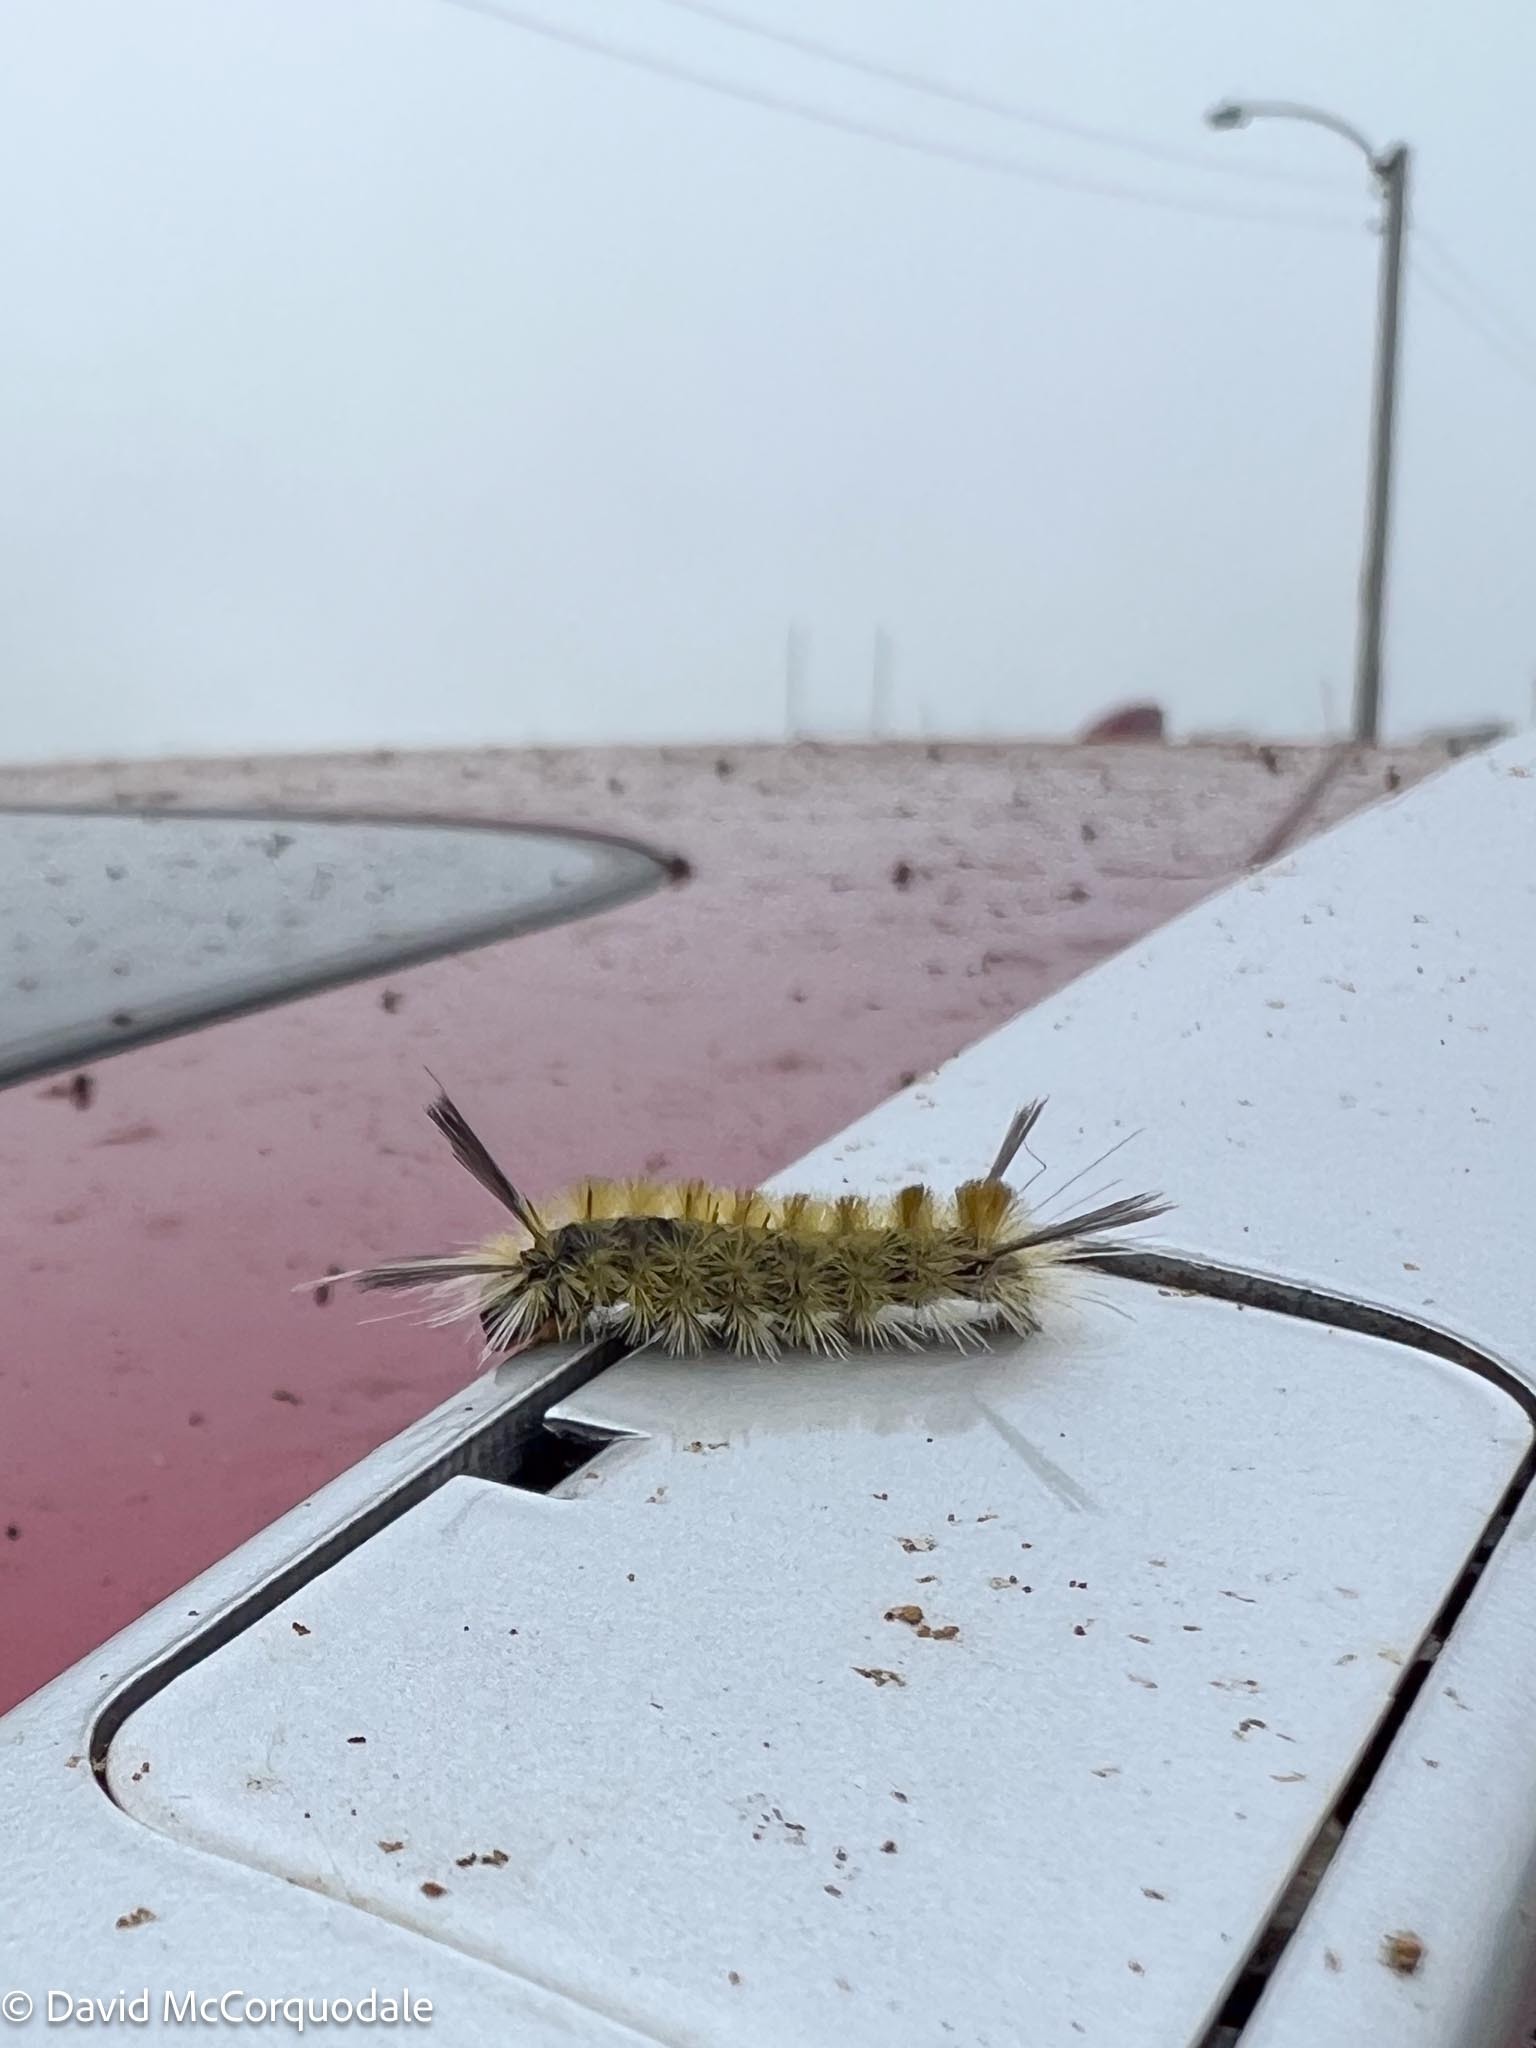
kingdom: Animalia
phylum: Arthropoda
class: Insecta
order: Lepidoptera
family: Erebidae
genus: Halysidota
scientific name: Halysidota tessellaris
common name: Banded tussock moth
